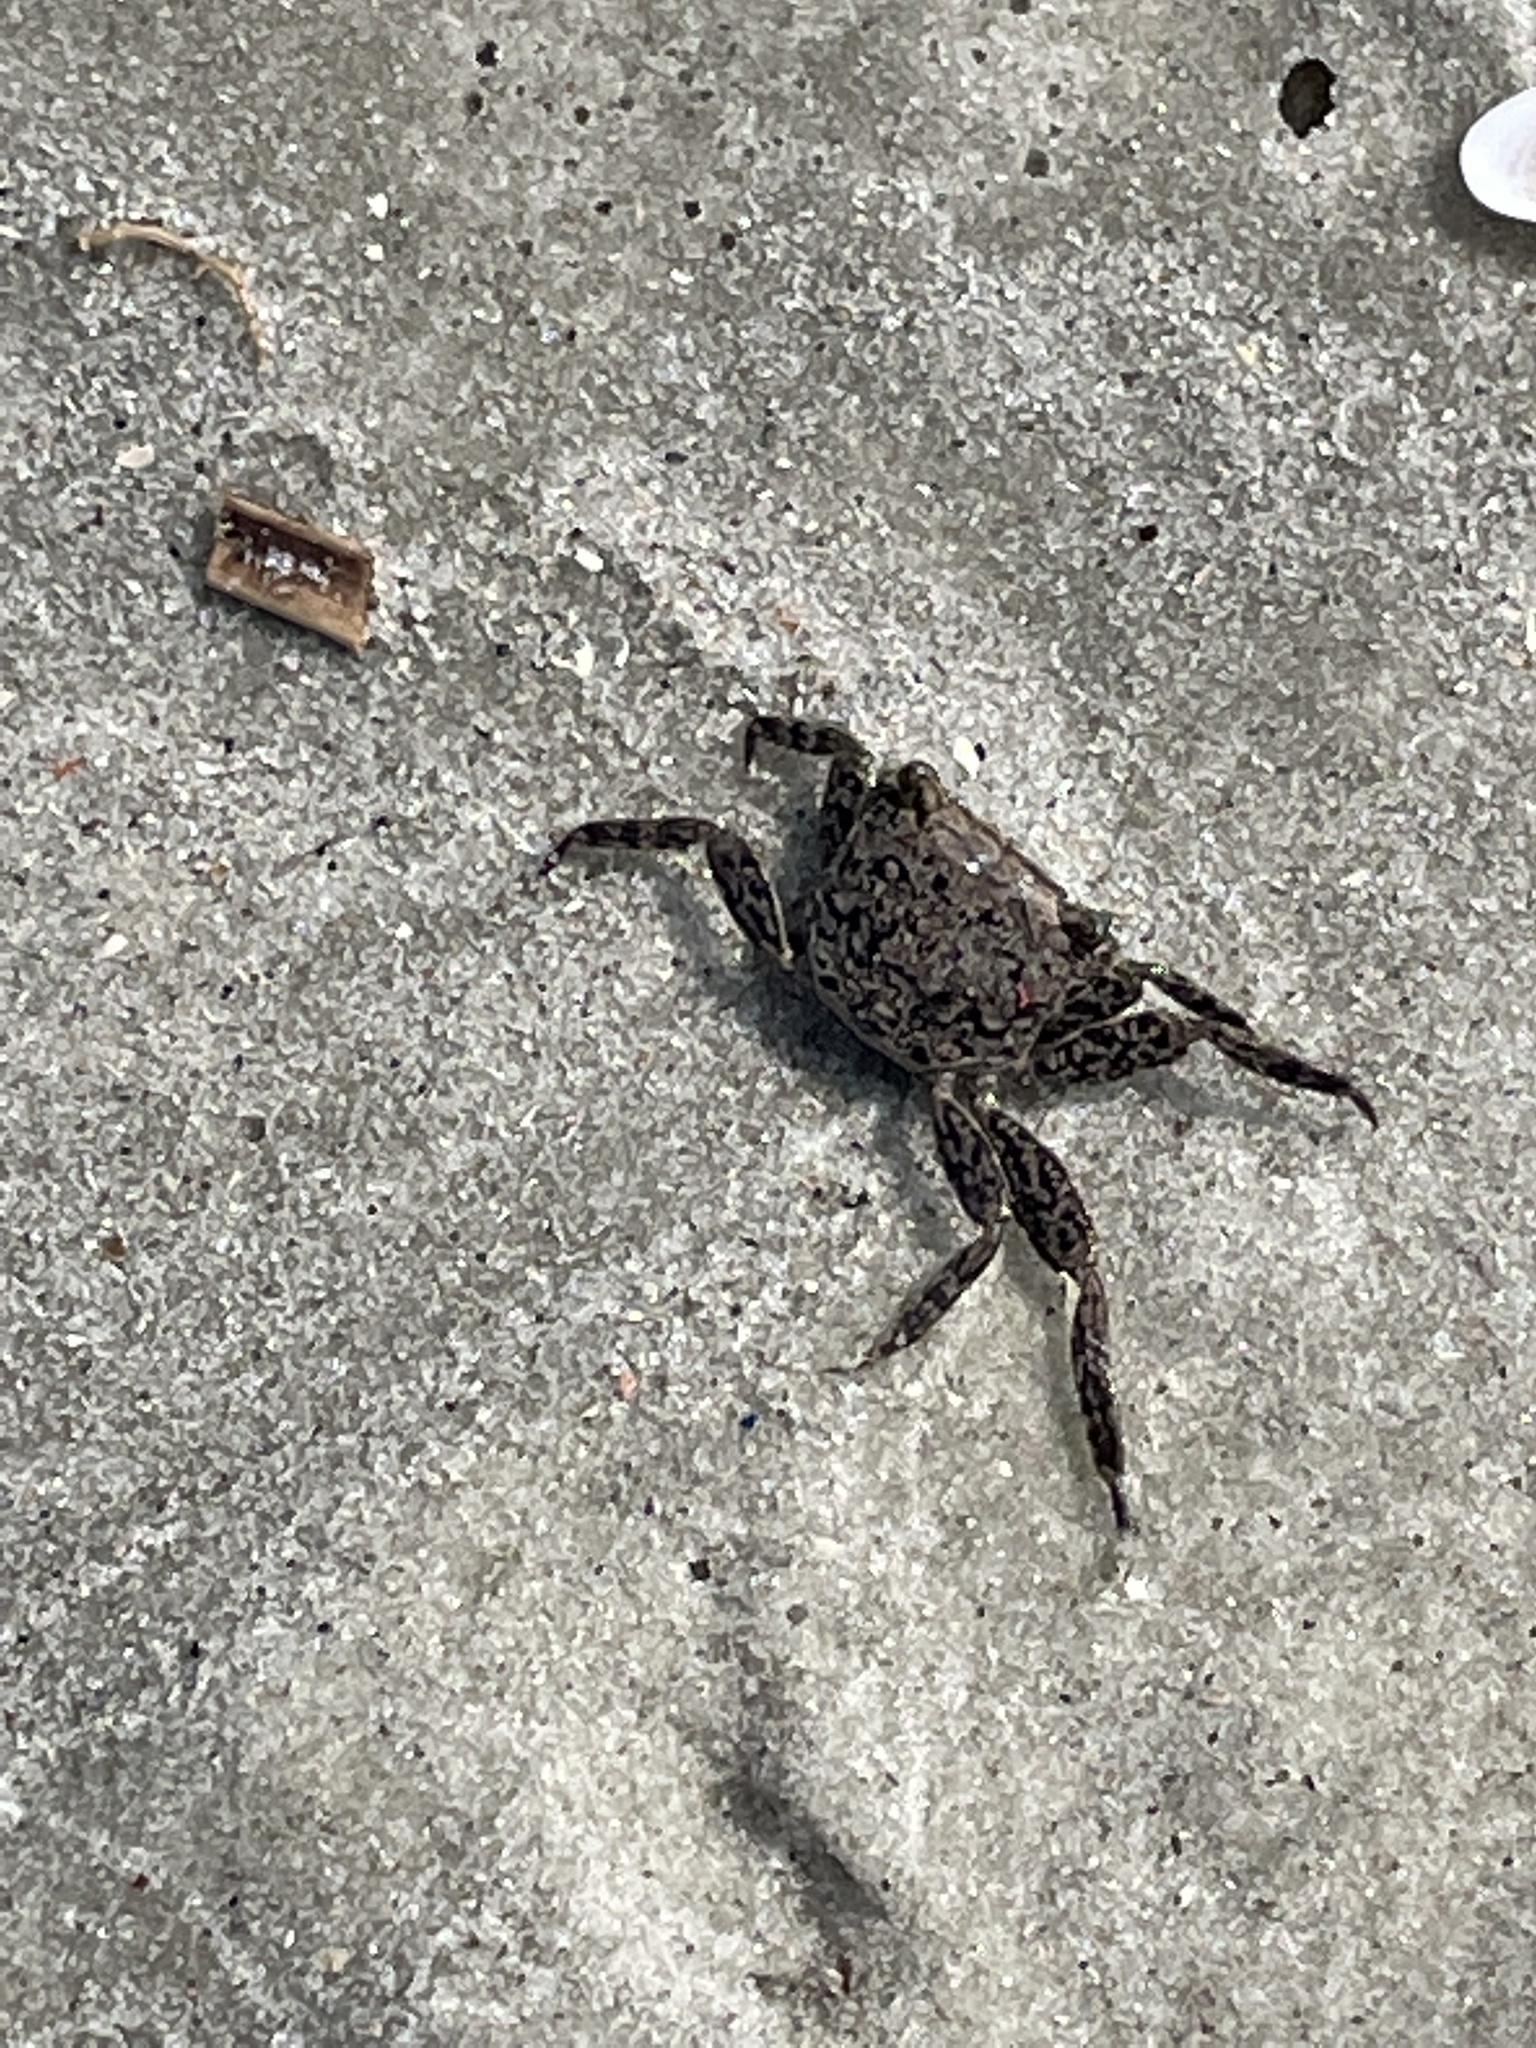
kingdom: Animalia
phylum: Arthropoda
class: Malacostraca
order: Decapoda
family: Sesarmidae
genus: Armases
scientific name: Armases cinereum
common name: Squareback marsh crab
